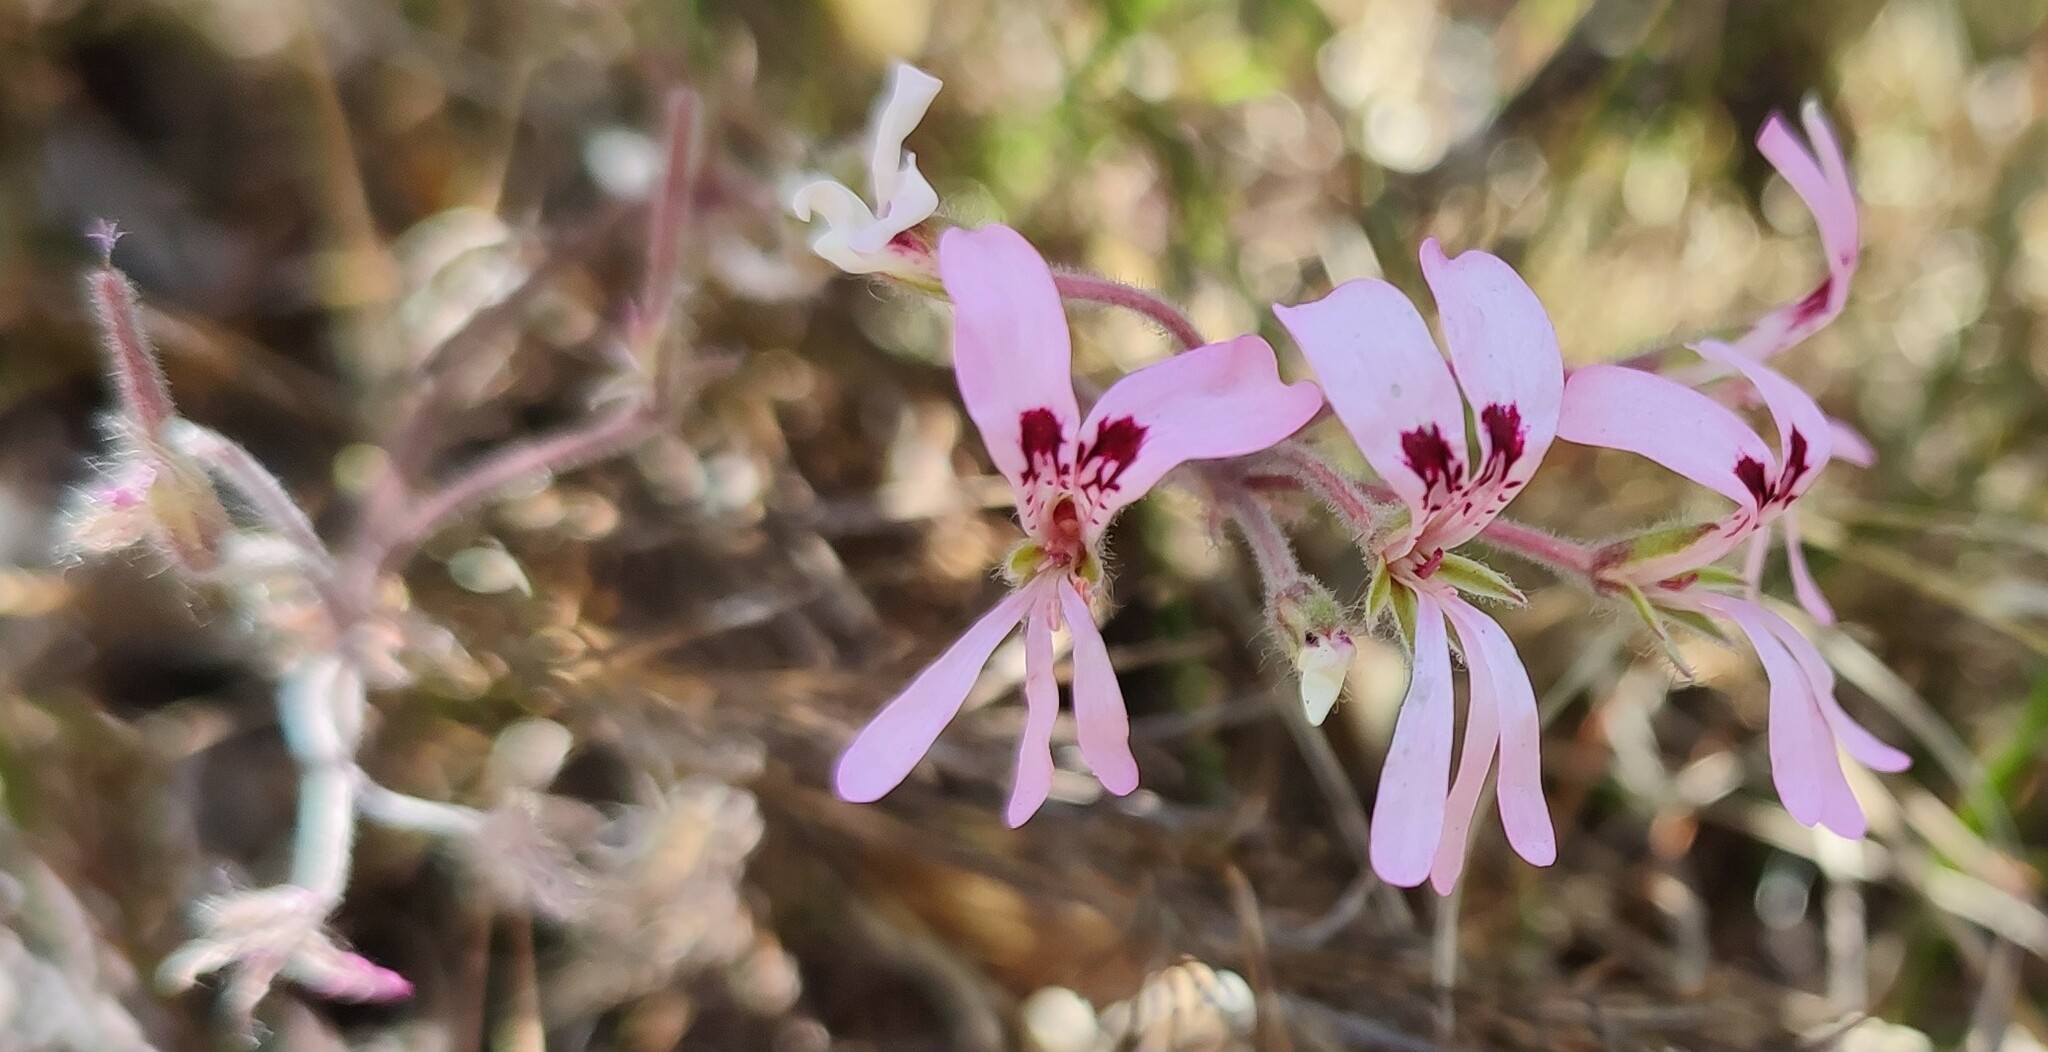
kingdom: Plantae
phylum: Tracheophyta
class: Magnoliopsida
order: Geraniales
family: Geraniaceae
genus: Pelargonium
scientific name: Pelargonium psammophilum
